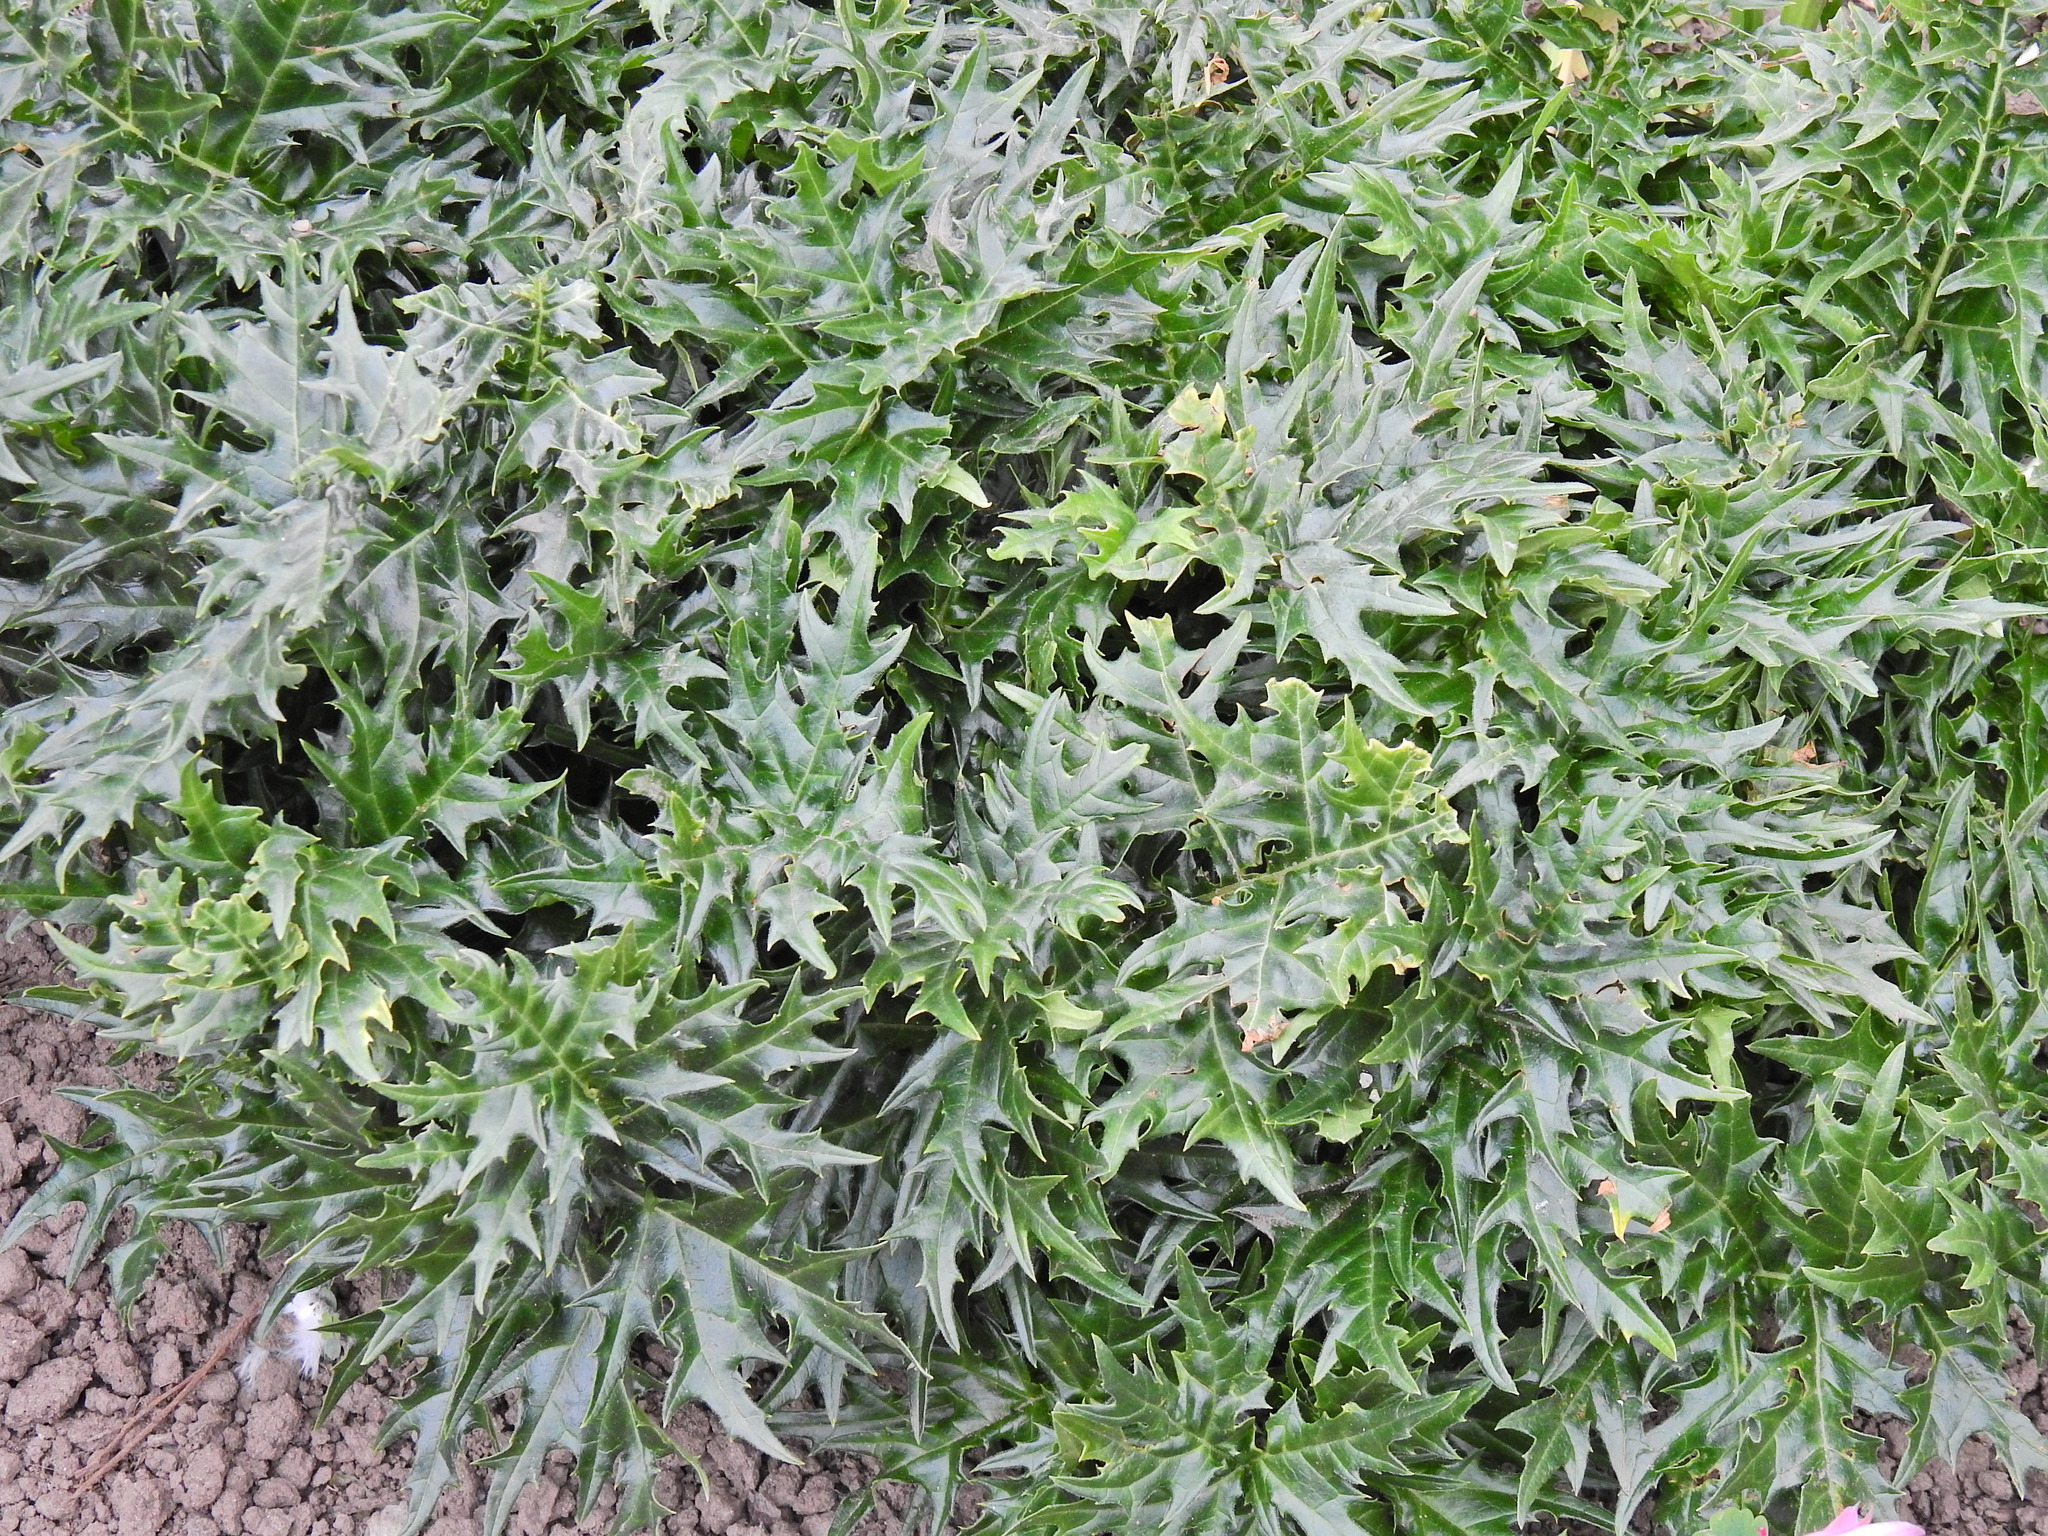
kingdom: Plantae
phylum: Tracheophyta
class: Magnoliopsida
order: Lamiales
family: Acanthaceae
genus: Acanthus
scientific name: Acanthus spinosus
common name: Spiny bear's-breech
